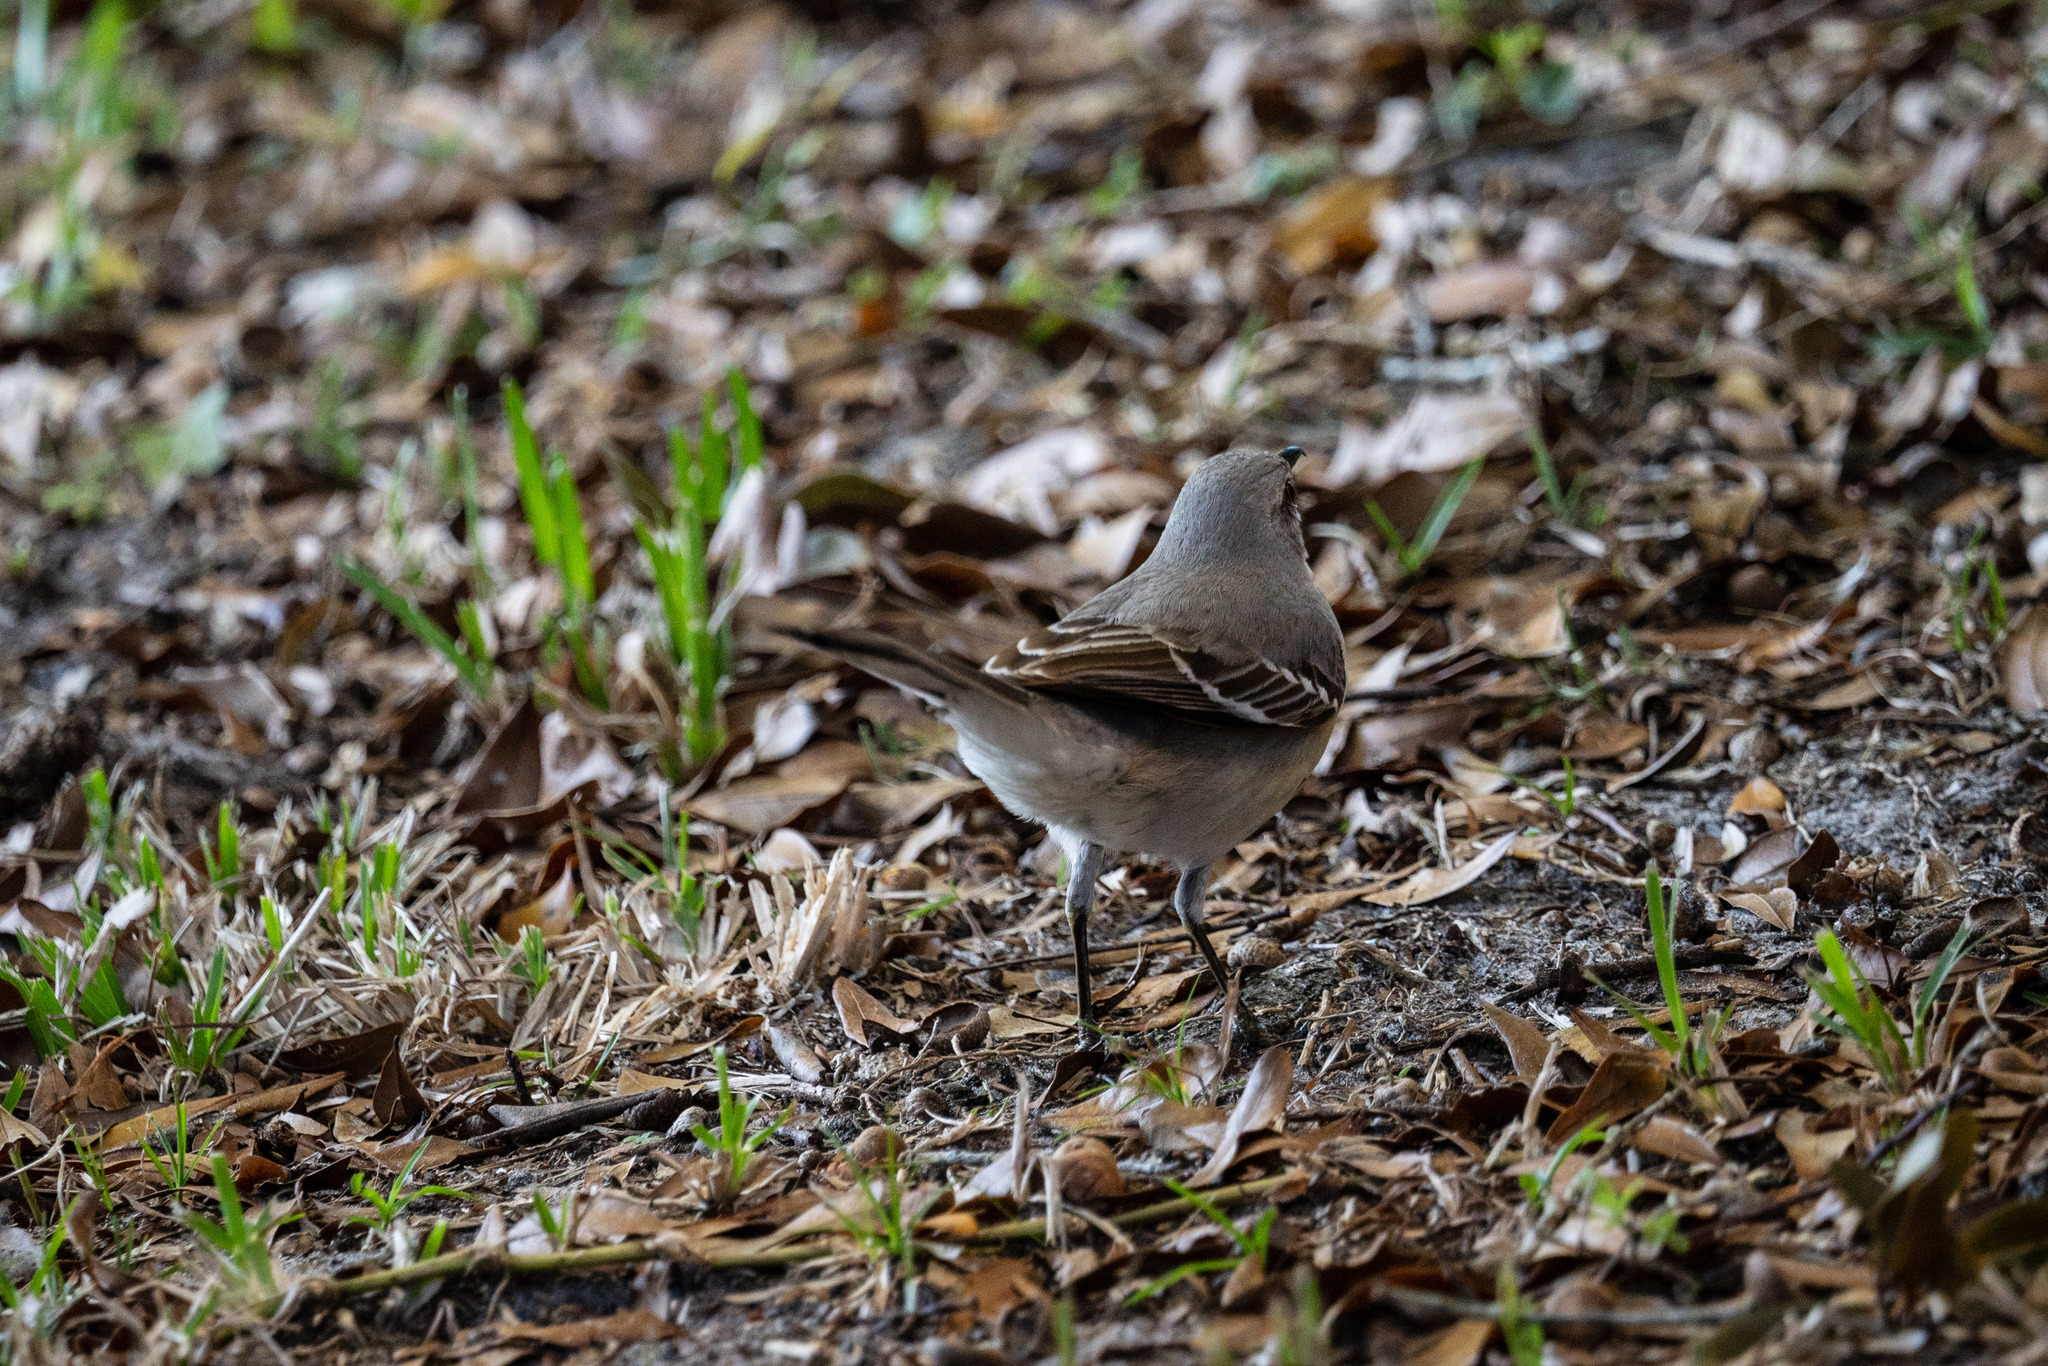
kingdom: Animalia
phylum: Chordata
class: Aves
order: Passeriformes
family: Mimidae
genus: Mimus
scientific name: Mimus polyglottos
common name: Northern mockingbird
